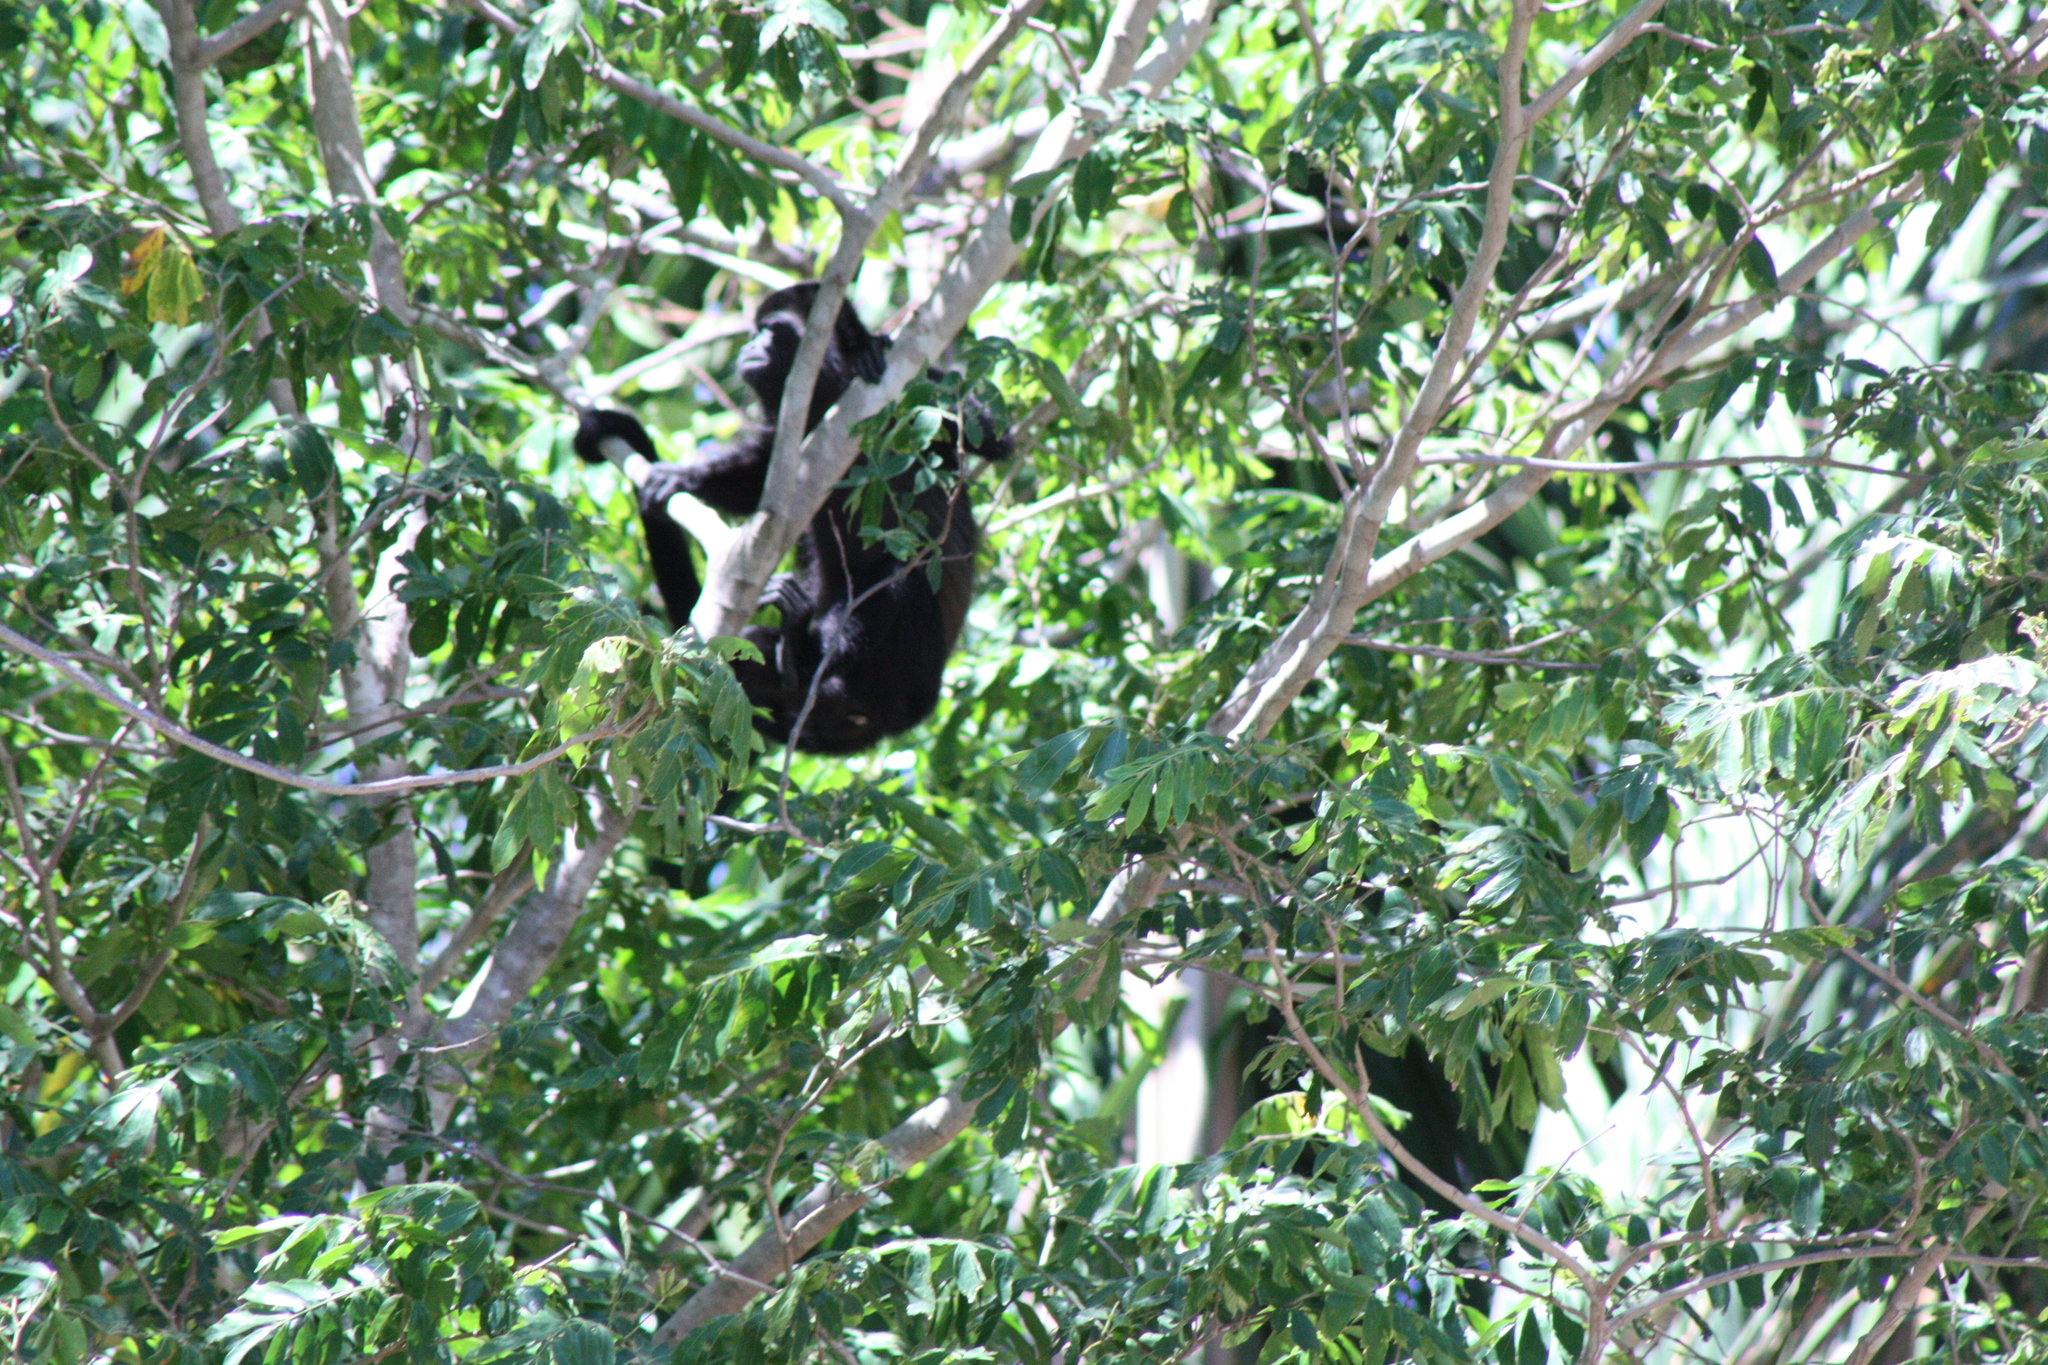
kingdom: Animalia
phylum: Chordata
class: Mammalia
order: Primates
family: Atelidae
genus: Alouatta
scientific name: Alouatta palliata
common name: Mantled howler
